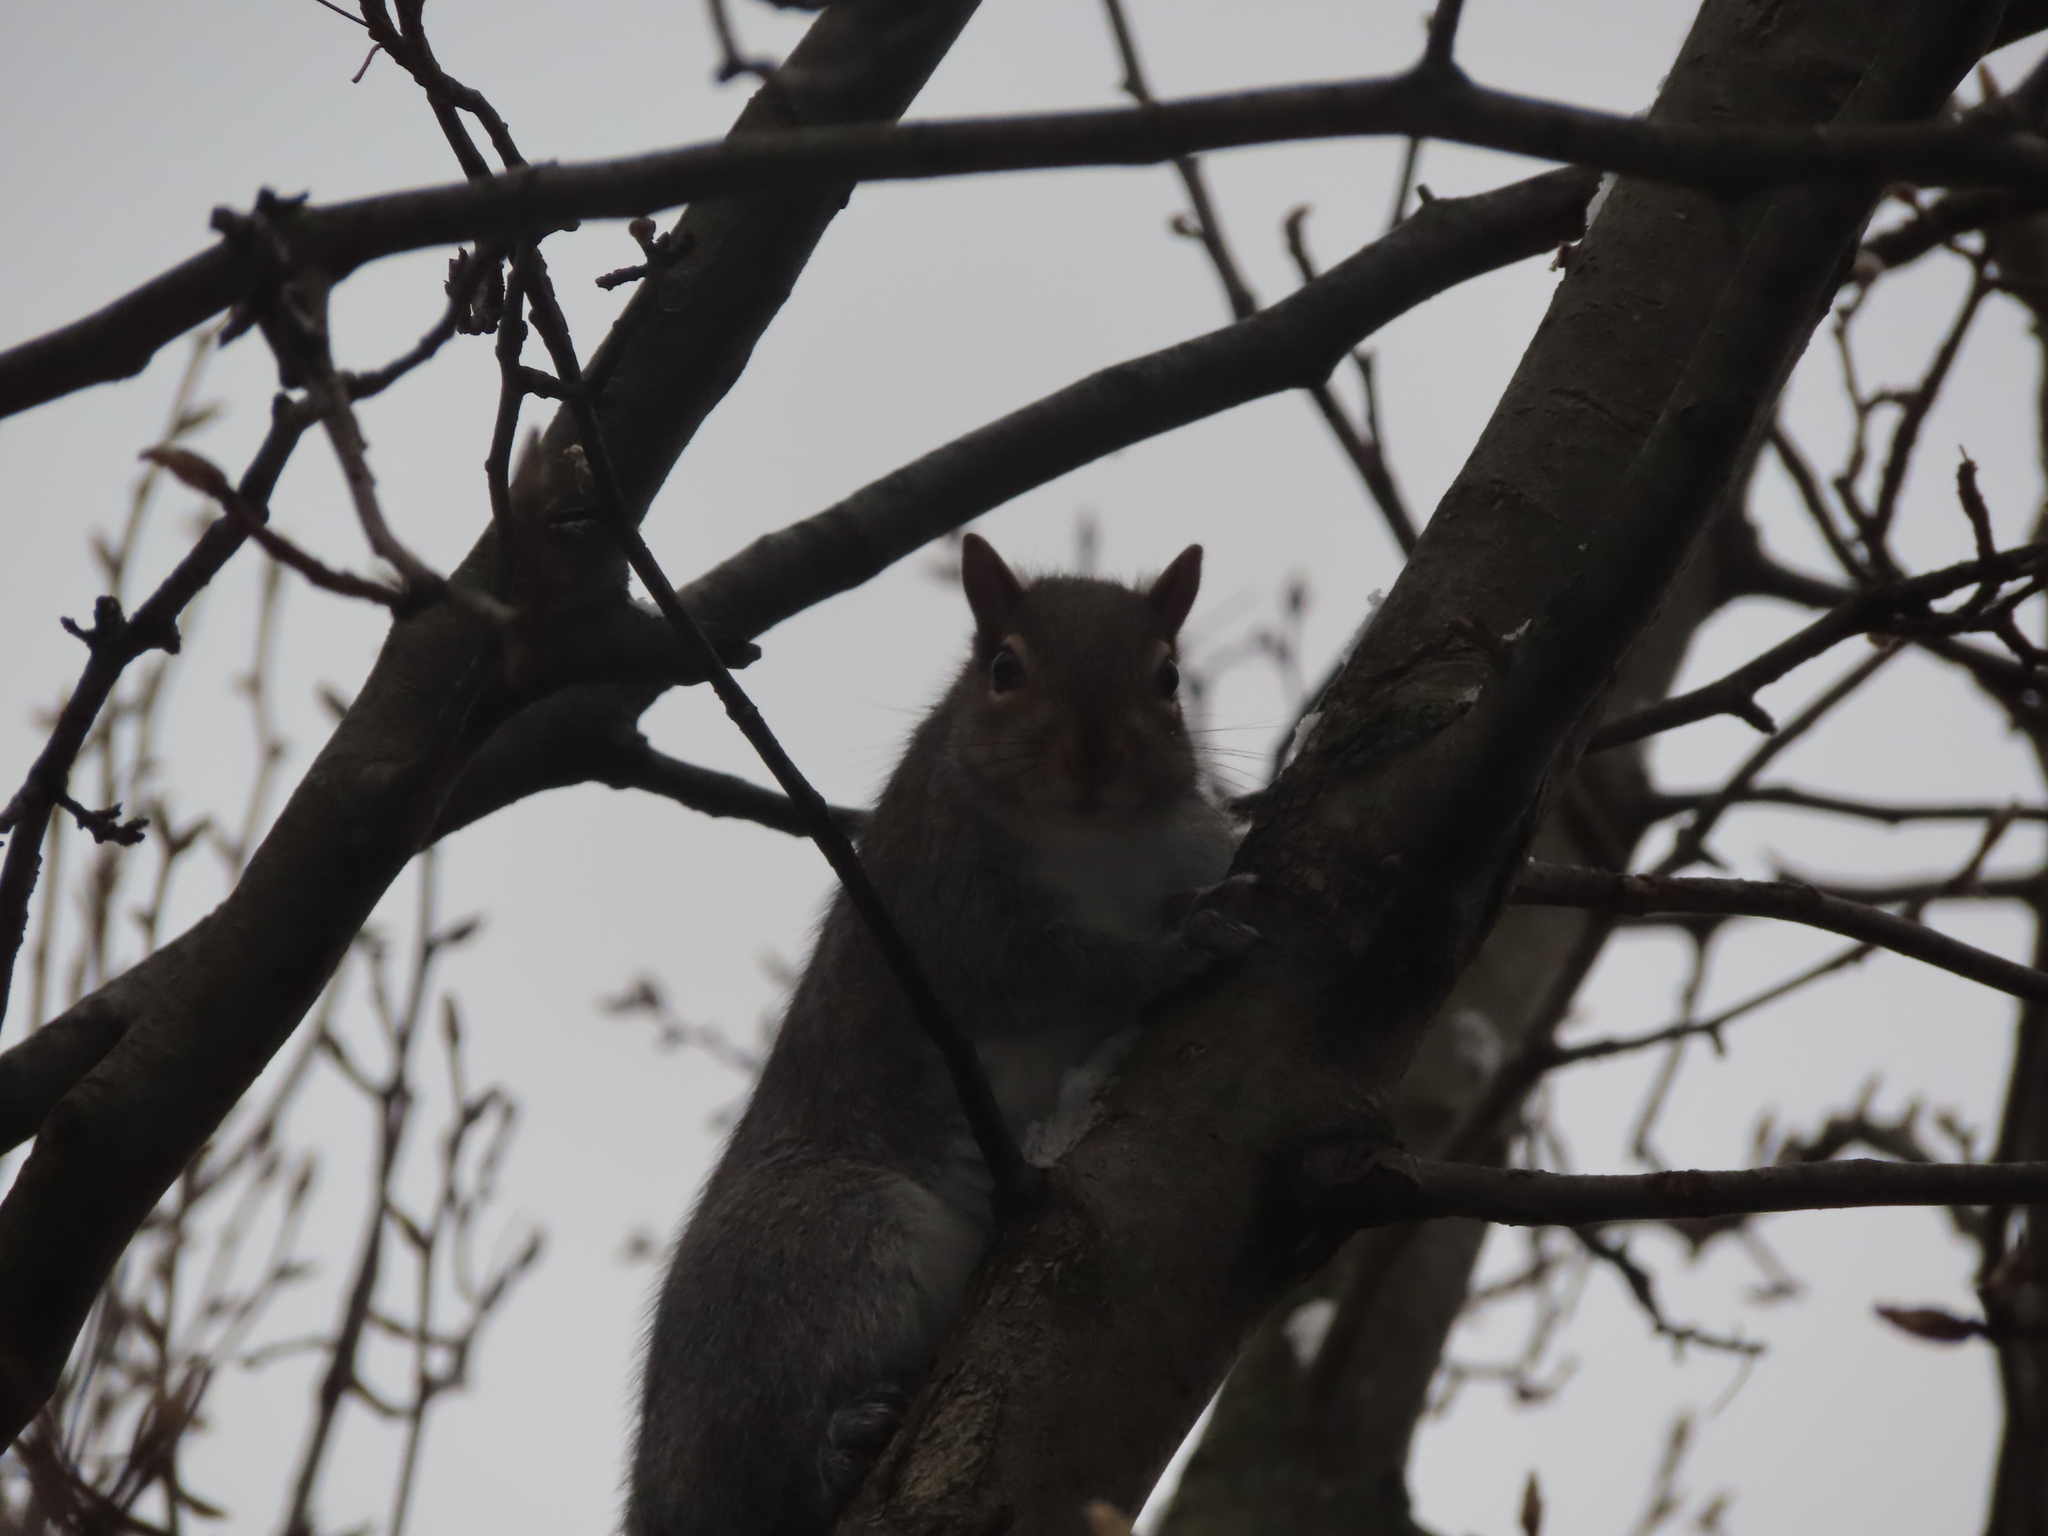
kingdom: Animalia
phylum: Chordata
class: Mammalia
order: Rodentia
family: Sciuridae
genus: Sciurus
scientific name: Sciurus carolinensis
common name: Eastern gray squirrel
